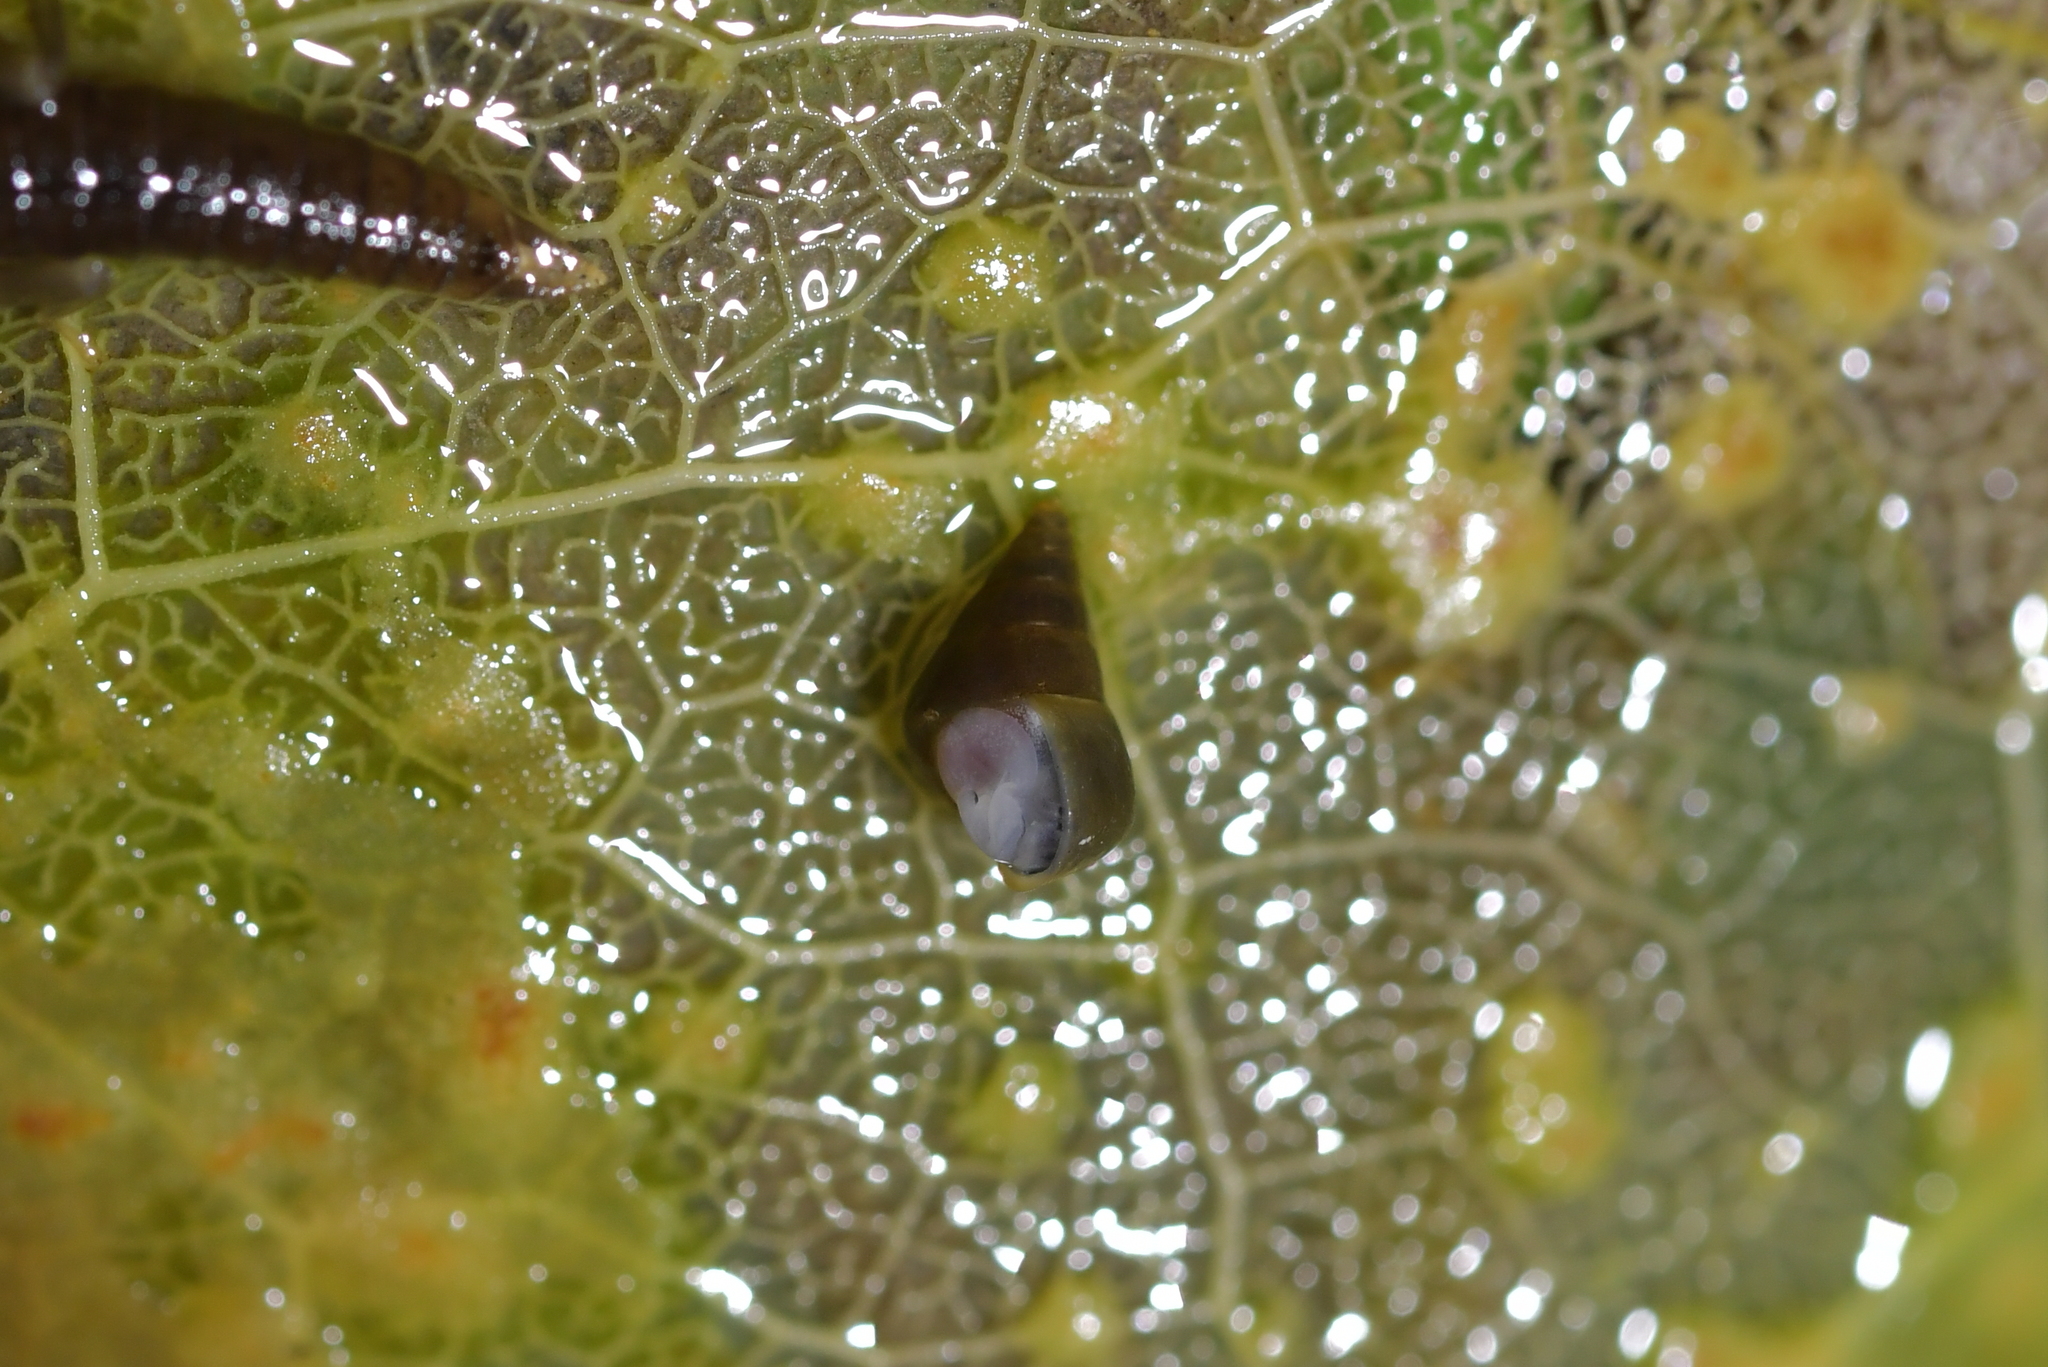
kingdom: Animalia
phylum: Mollusca
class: Gastropoda
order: Littorinimorpha
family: Tateidae
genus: Potamopyrgus
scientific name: Potamopyrgus antipodarum
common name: Jenkins' spire snail
